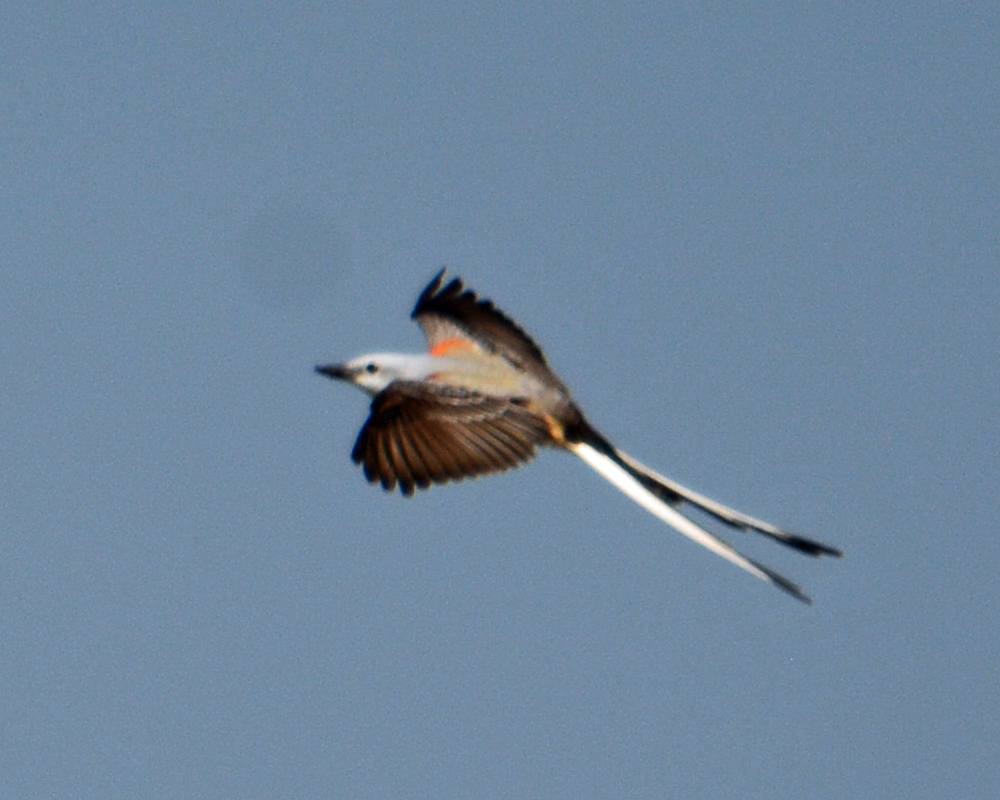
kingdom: Animalia
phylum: Chordata
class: Aves
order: Passeriformes
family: Tyrannidae
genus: Tyrannus
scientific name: Tyrannus forficatus
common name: Scissor-tailed flycatcher
